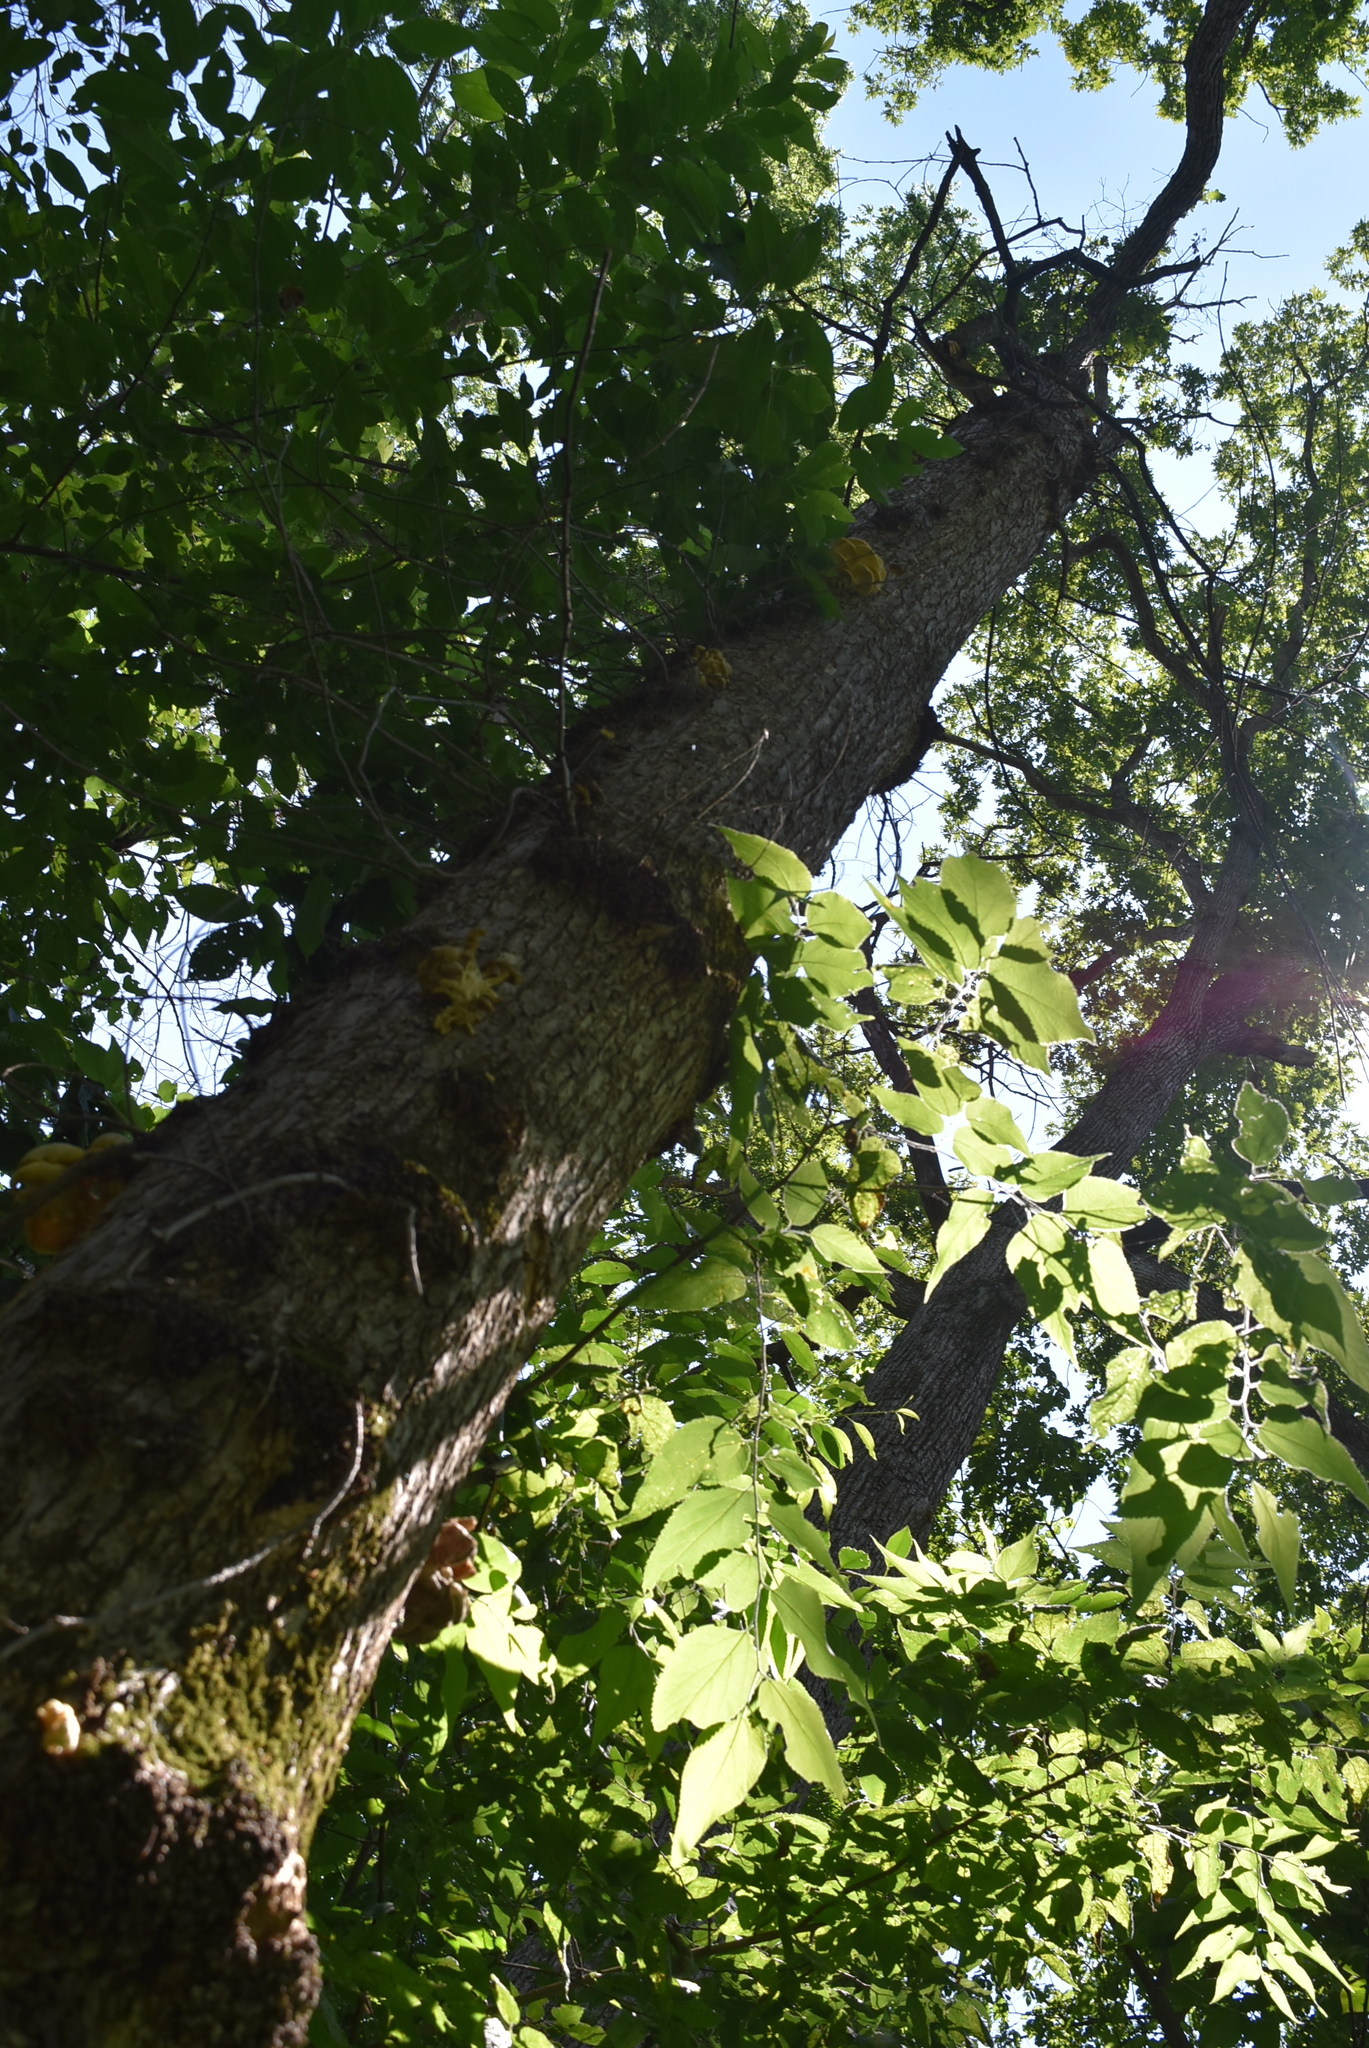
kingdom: Fungi
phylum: Basidiomycota
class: Agaricomycetes
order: Agaricales
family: Pleurotaceae
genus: Pleurotus
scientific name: Pleurotus citrinopileatus
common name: Golden oyster mushroom
